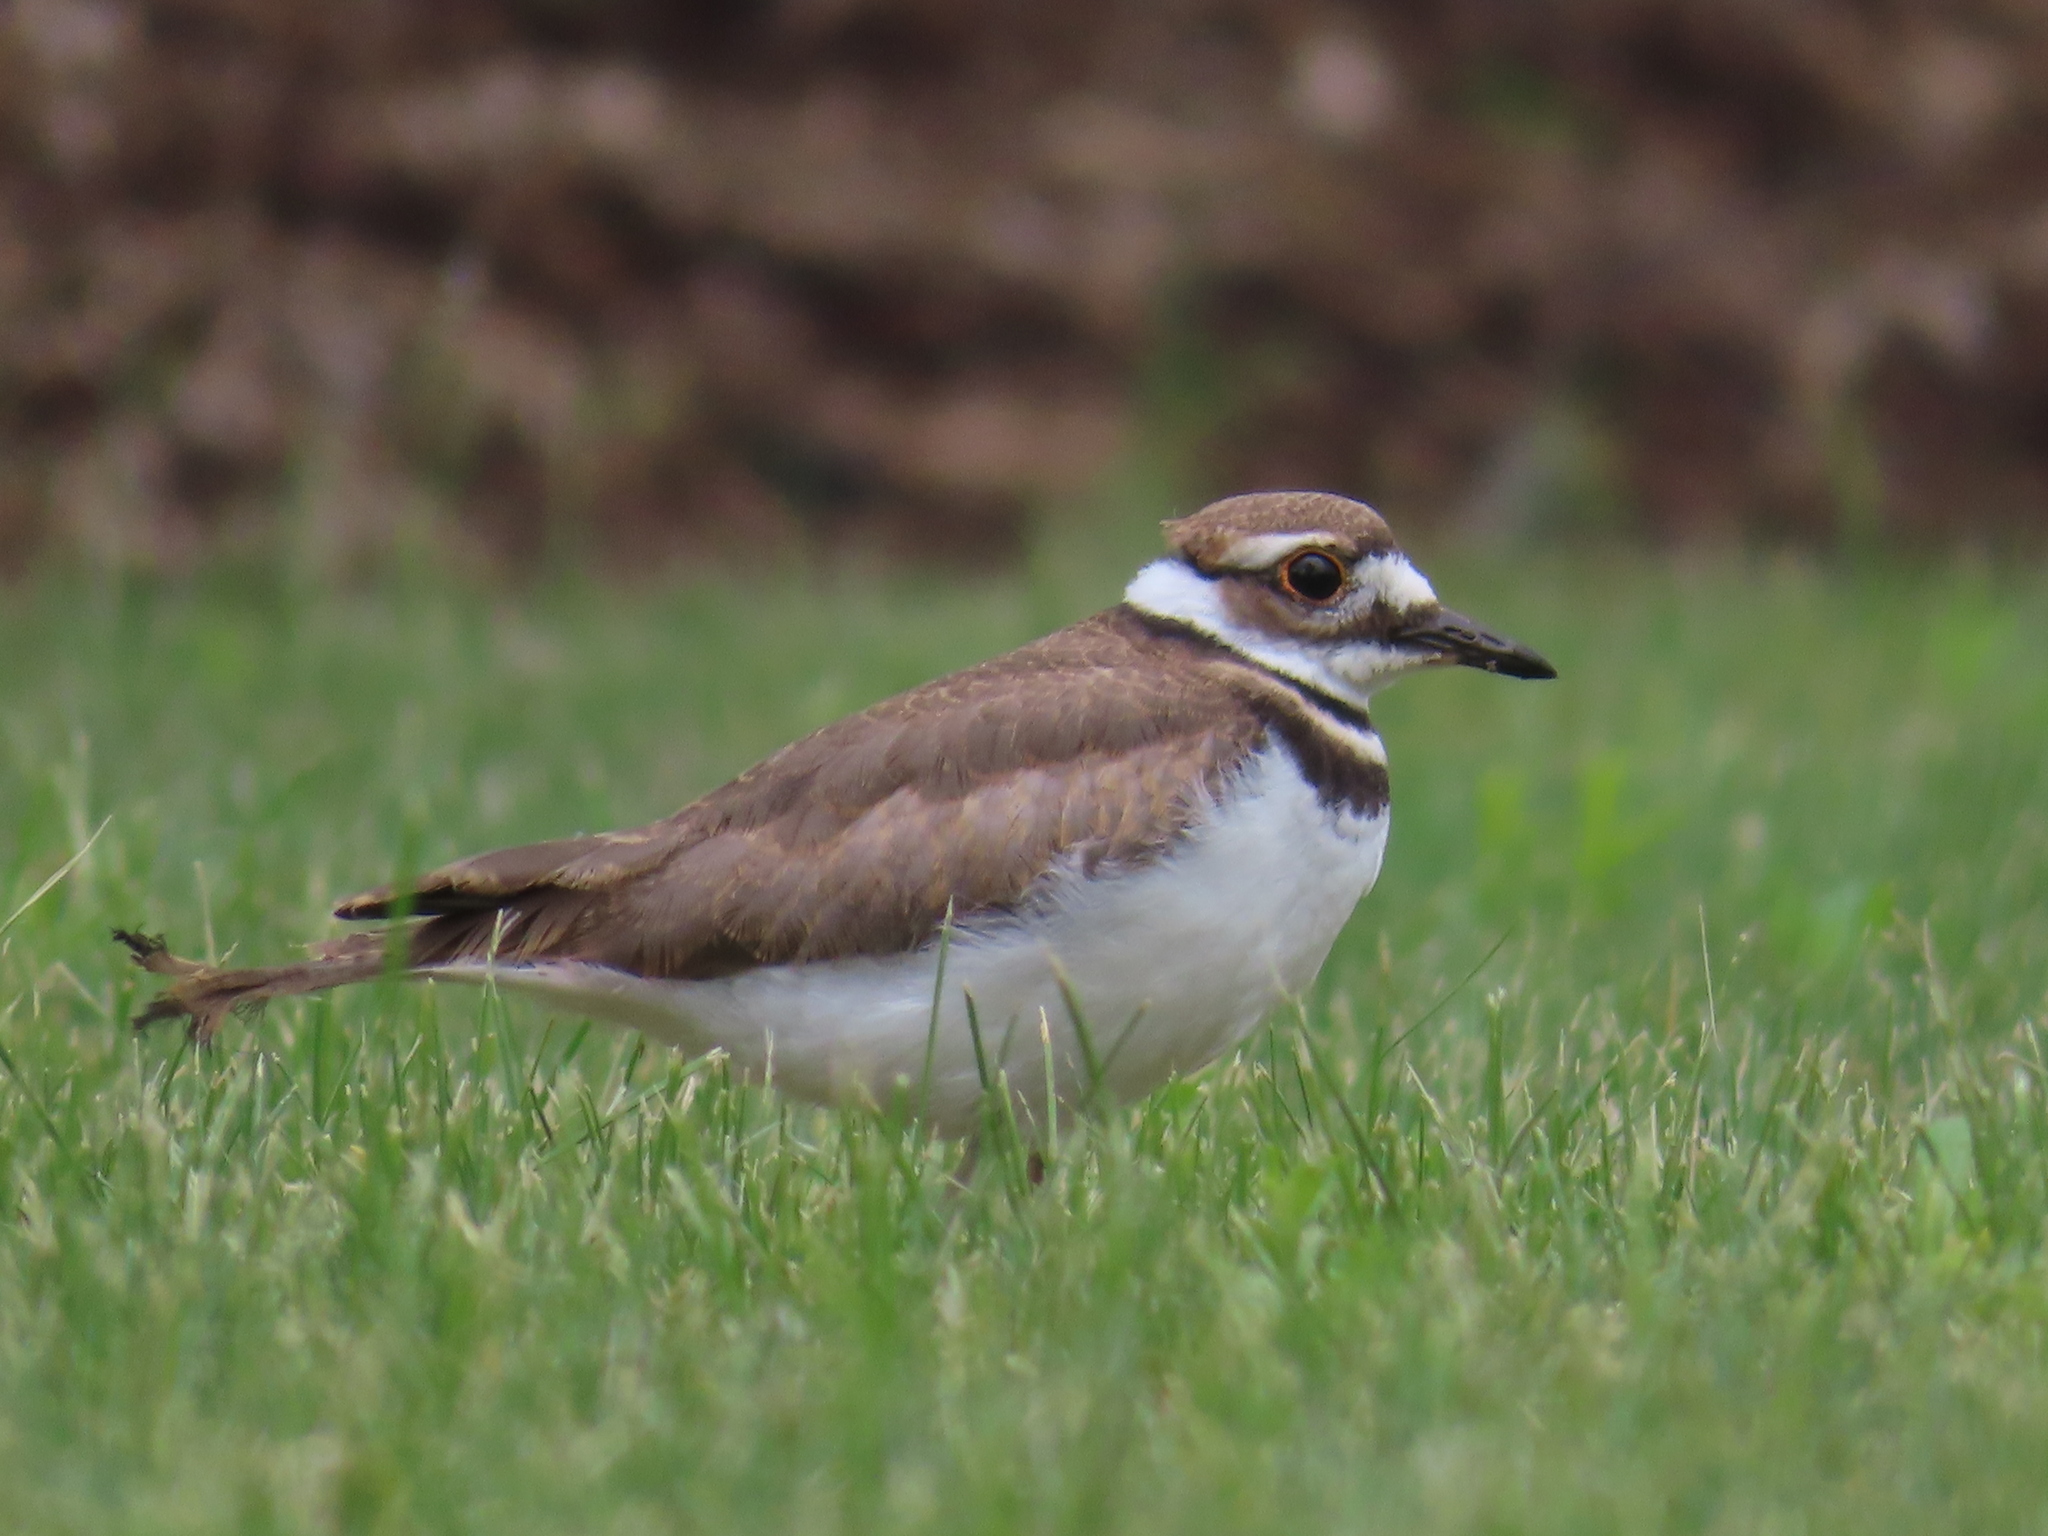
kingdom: Animalia
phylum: Chordata
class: Aves
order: Charadriiformes
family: Charadriidae
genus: Charadrius
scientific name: Charadrius vociferus
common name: Killdeer
